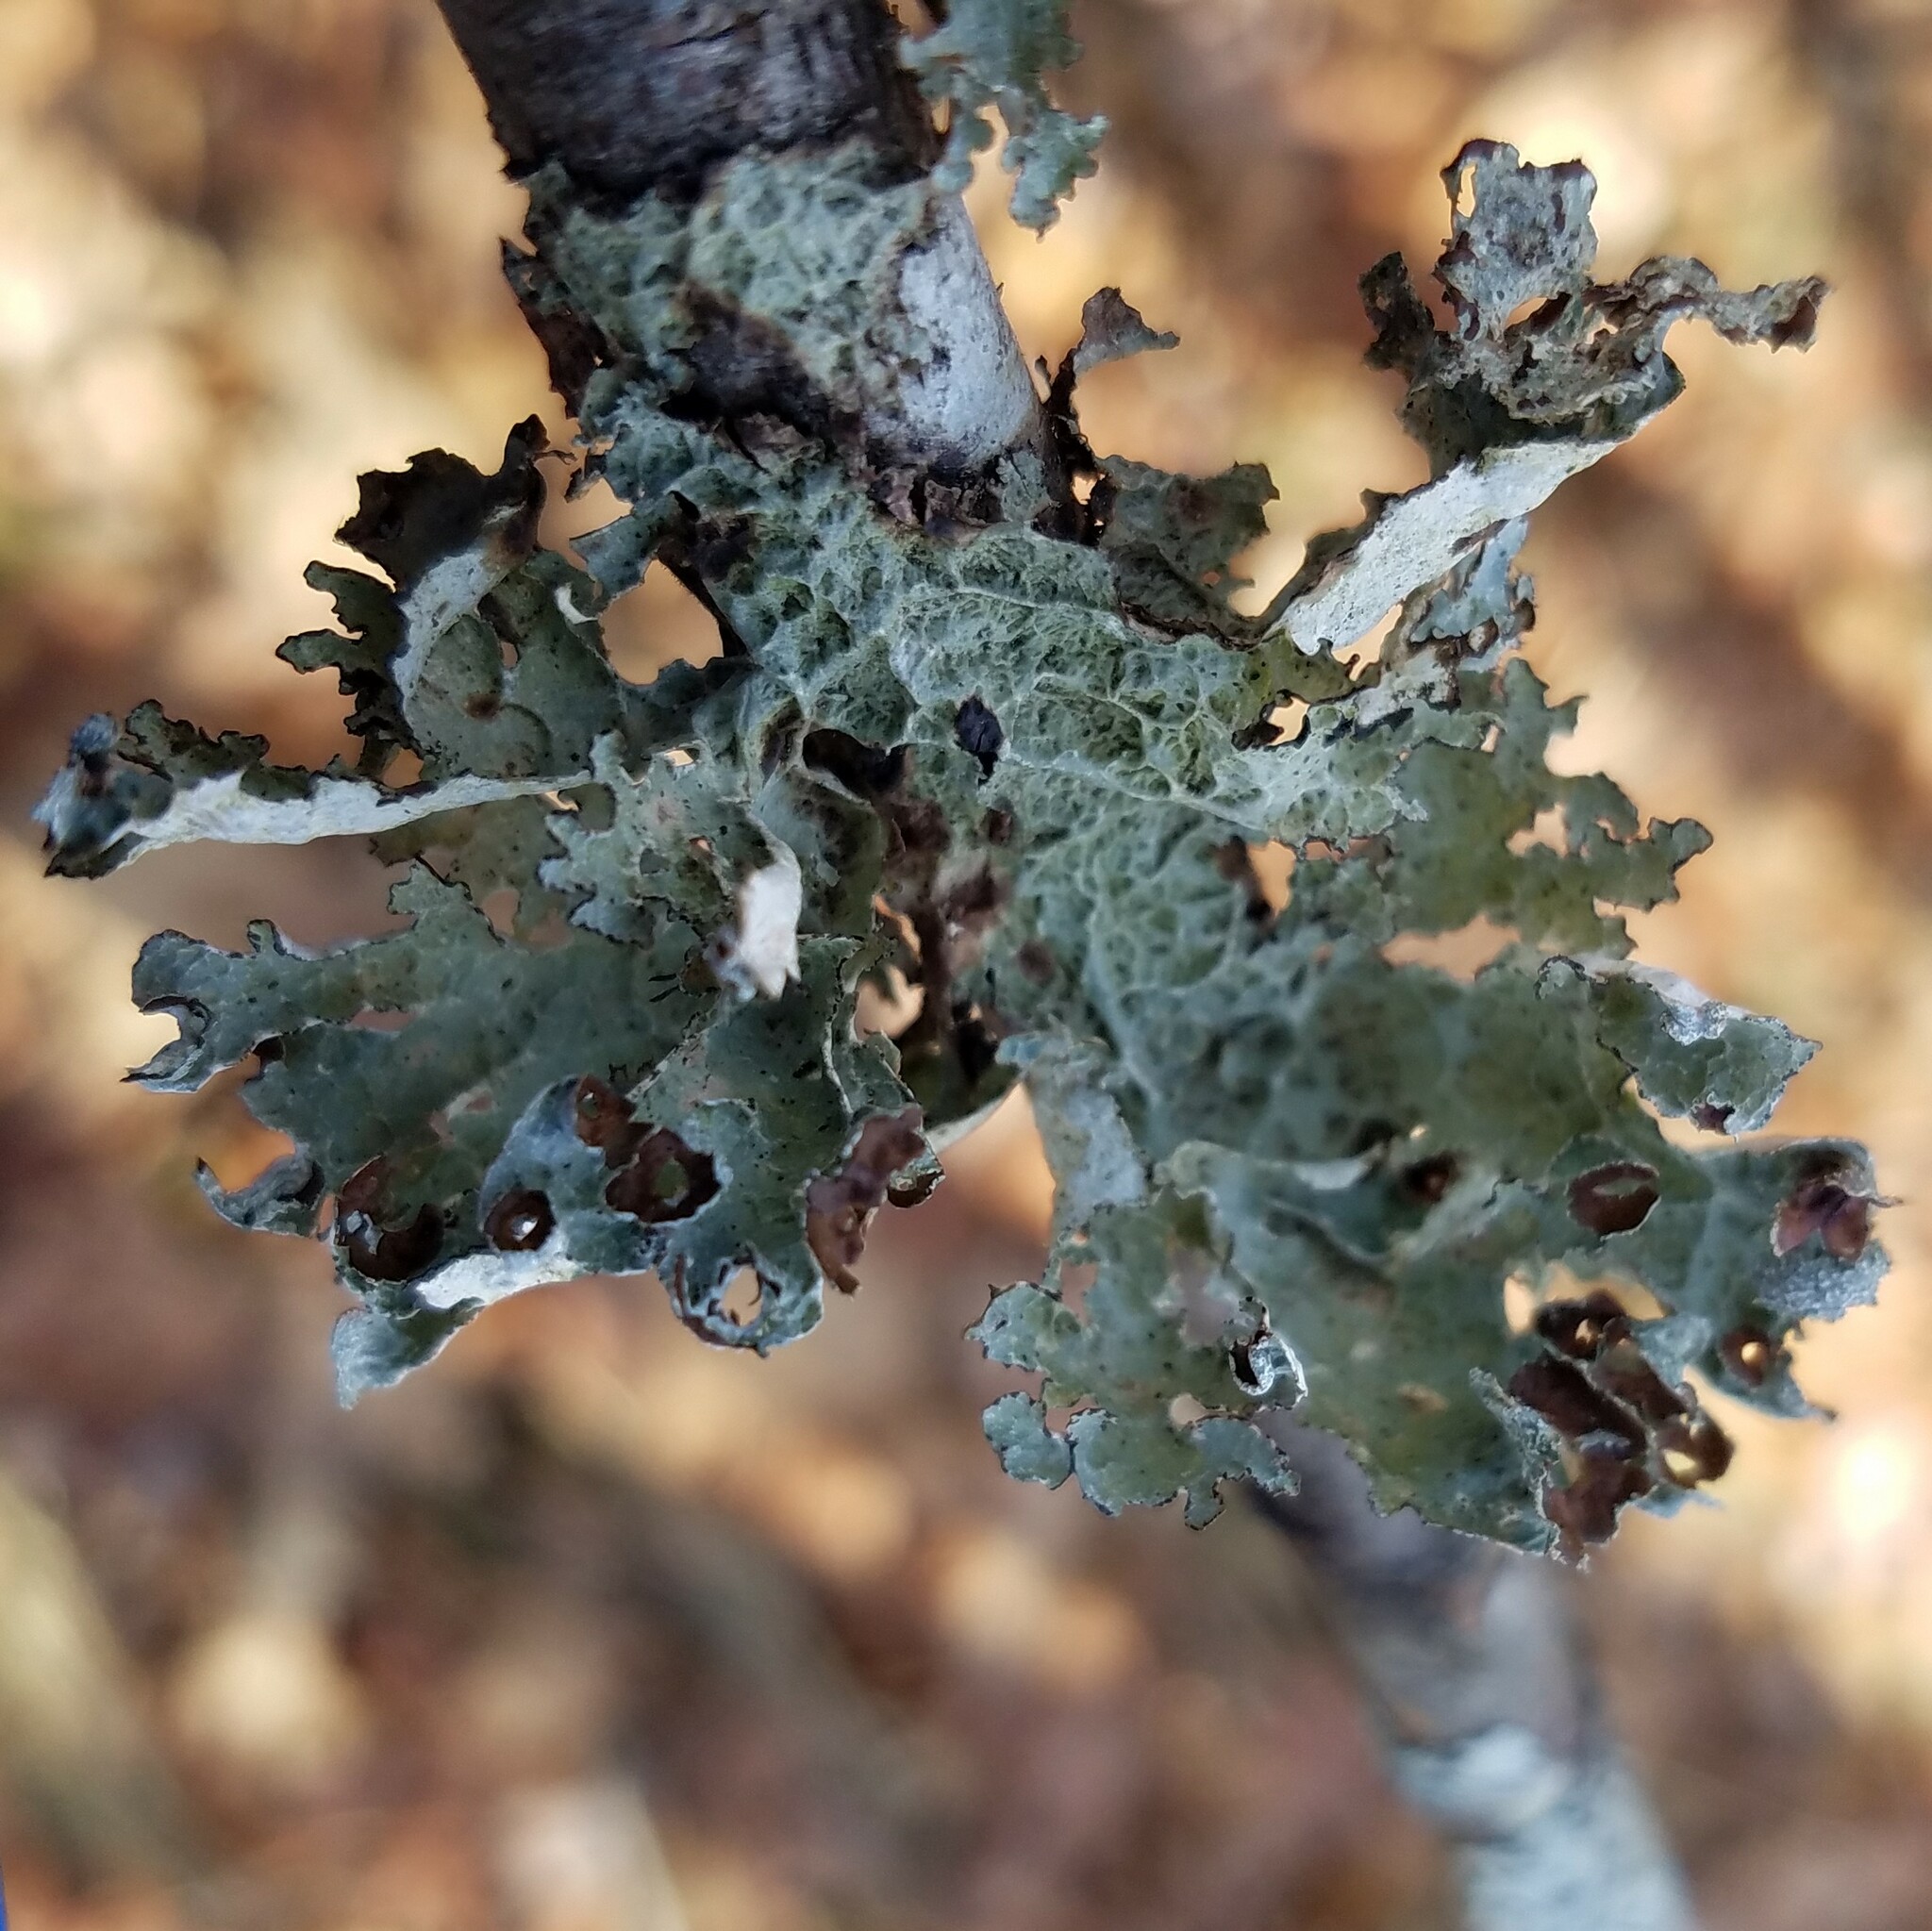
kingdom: Fungi
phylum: Ascomycota
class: Lecanoromycetes
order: Lecanorales
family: Parmeliaceae
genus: Platismatia
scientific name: Platismatia tuckermanii
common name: Crumpled rag lichen
